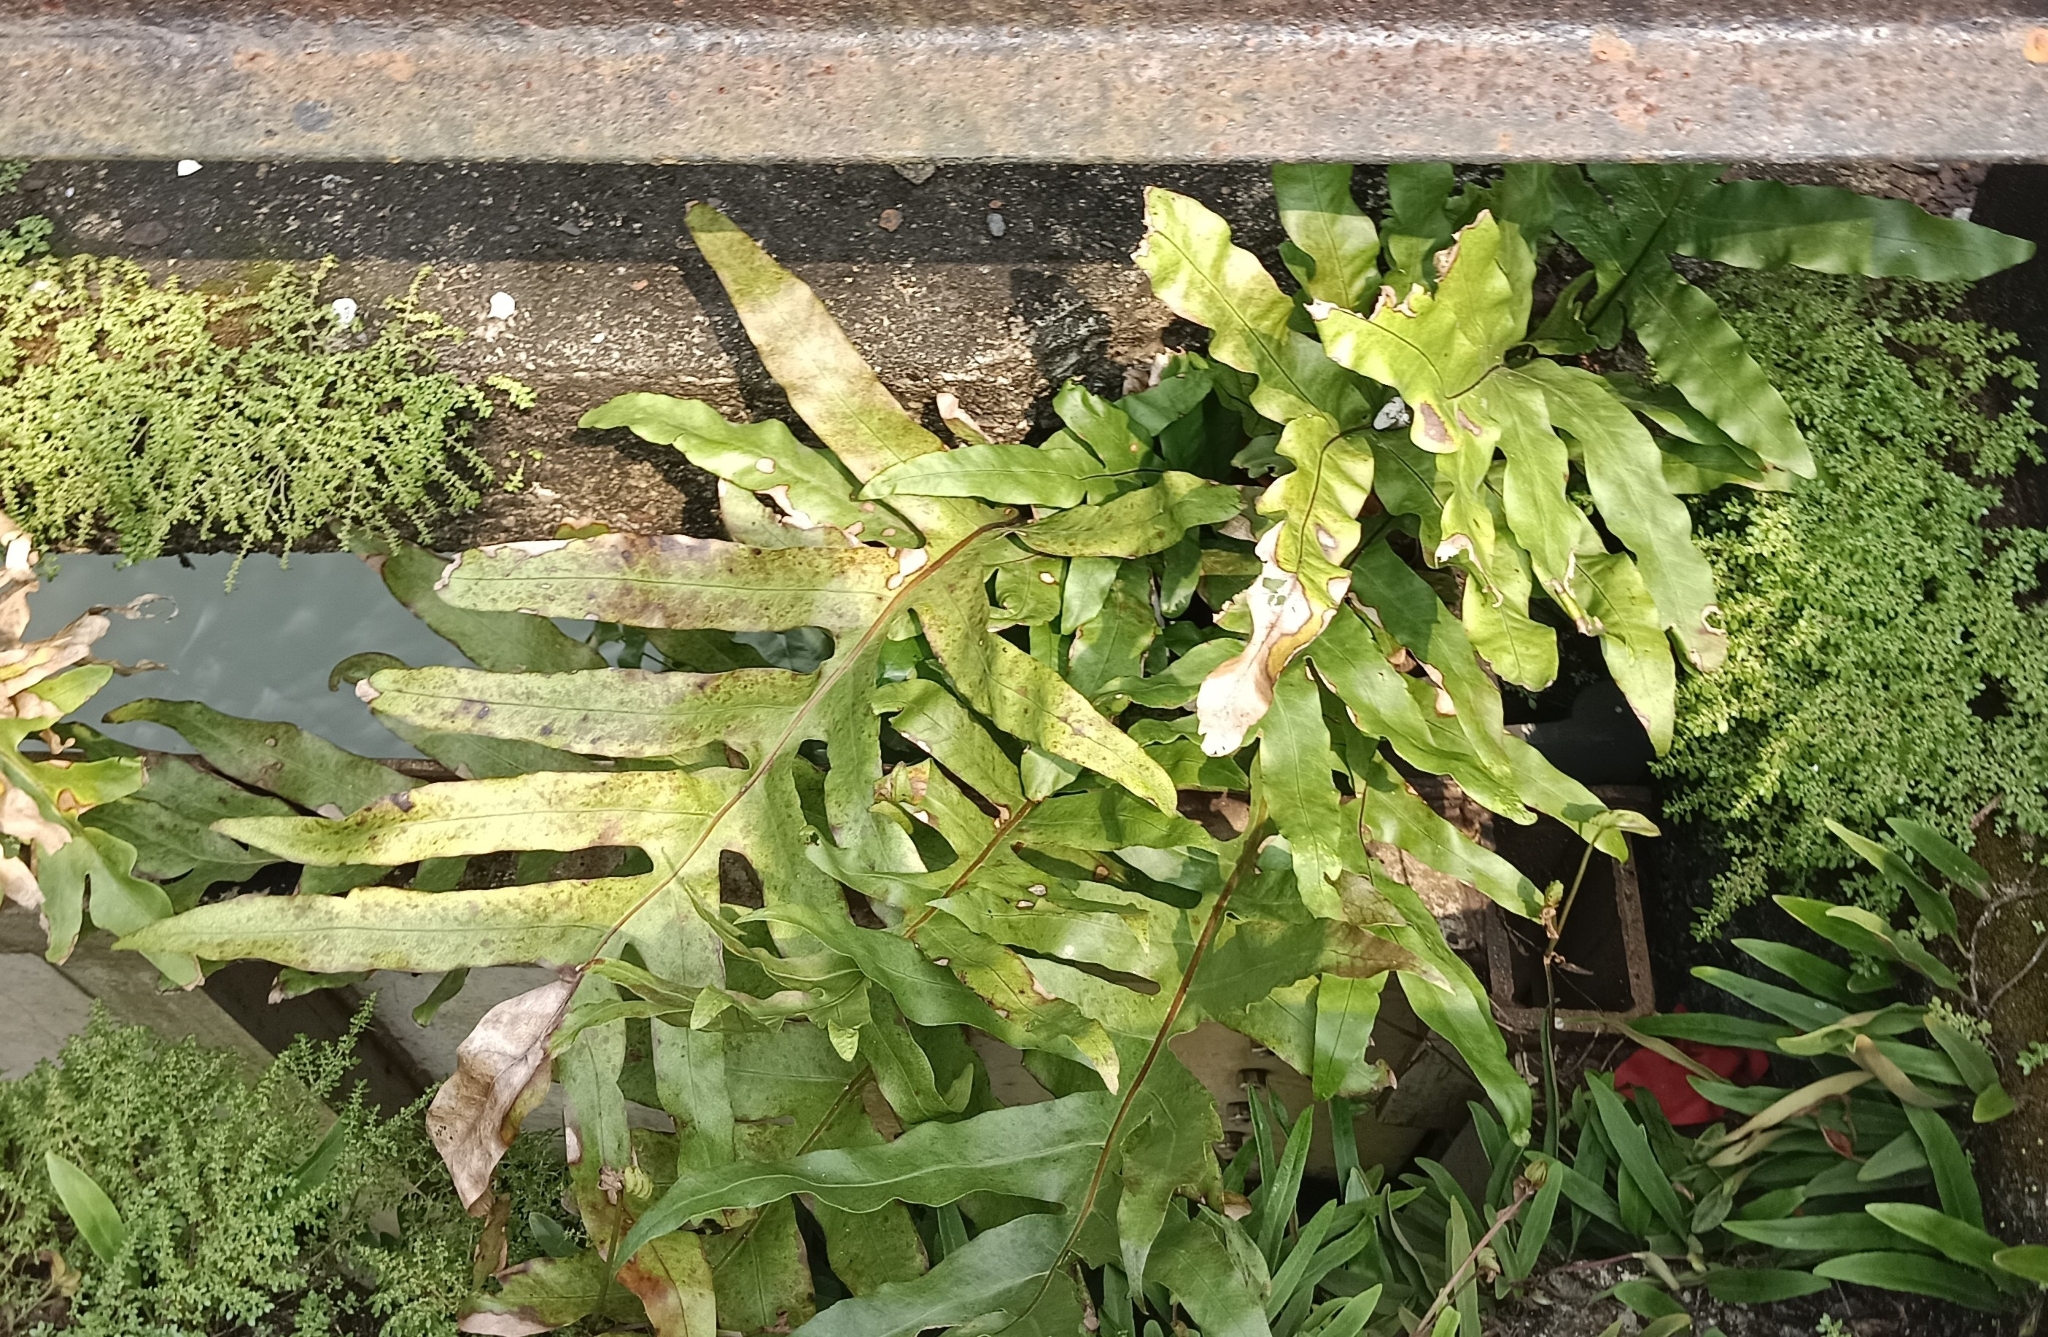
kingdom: Plantae
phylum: Tracheophyta
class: Polypodiopsida
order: Polypodiales
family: Polypodiaceae
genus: Drynaria
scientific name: Drynaria quercifolia
